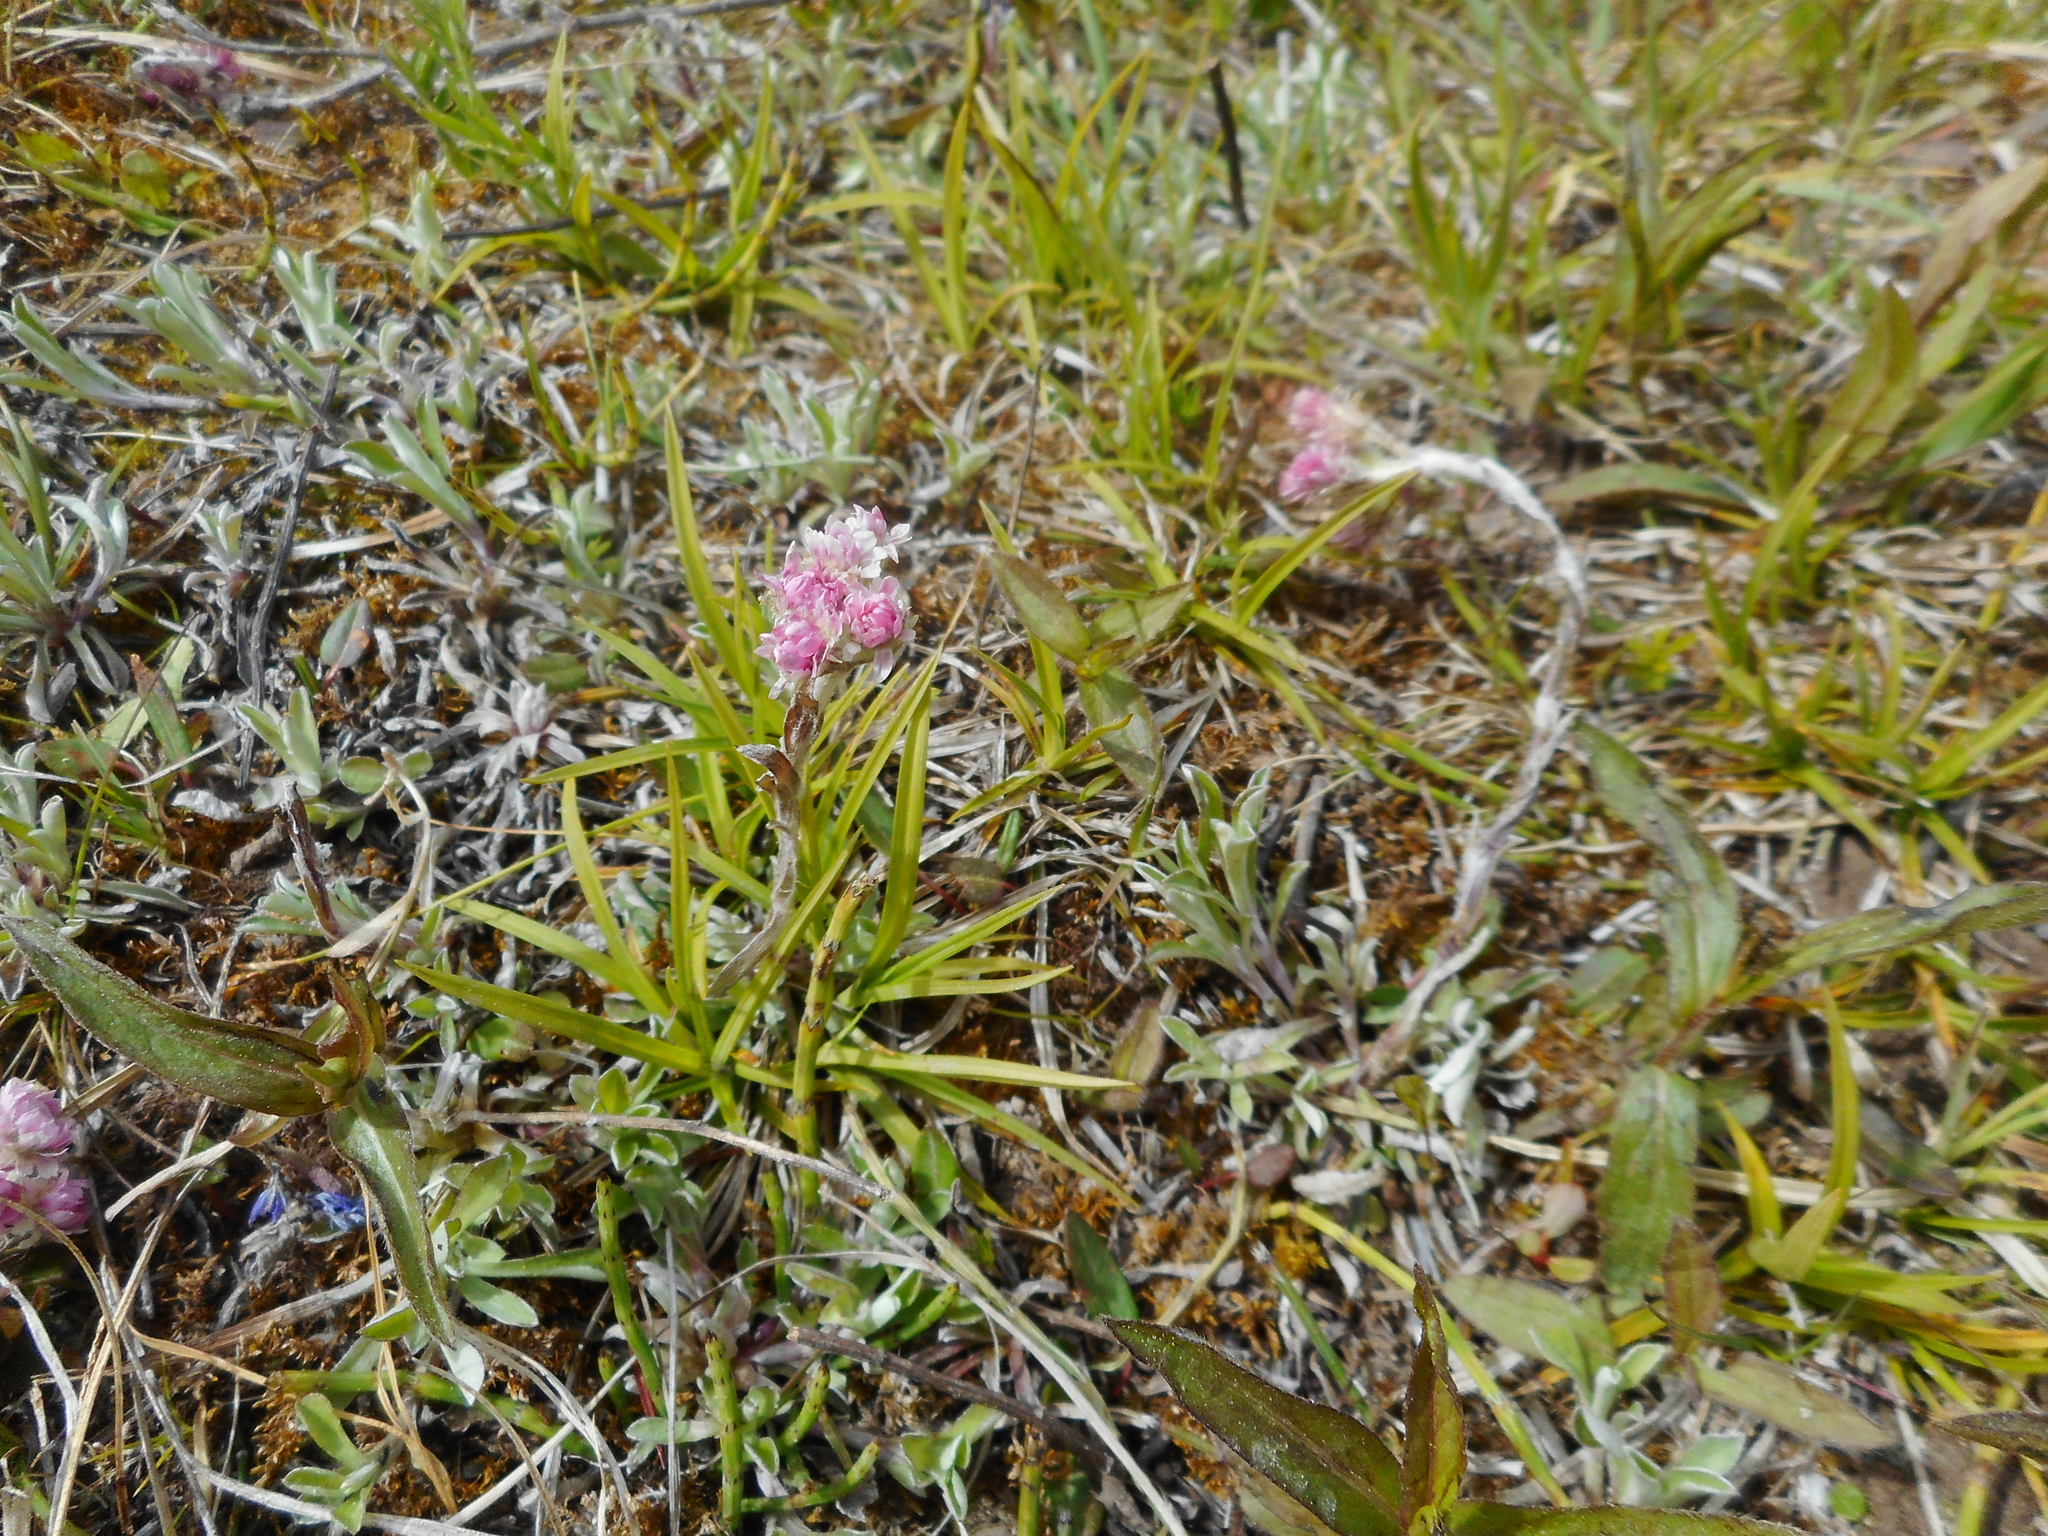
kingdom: Plantae
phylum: Tracheophyta
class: Magnoliopsida
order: Asterales
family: Asteraceae
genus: Antennaria
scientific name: Antennaria dioica
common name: Mountain everlasting
